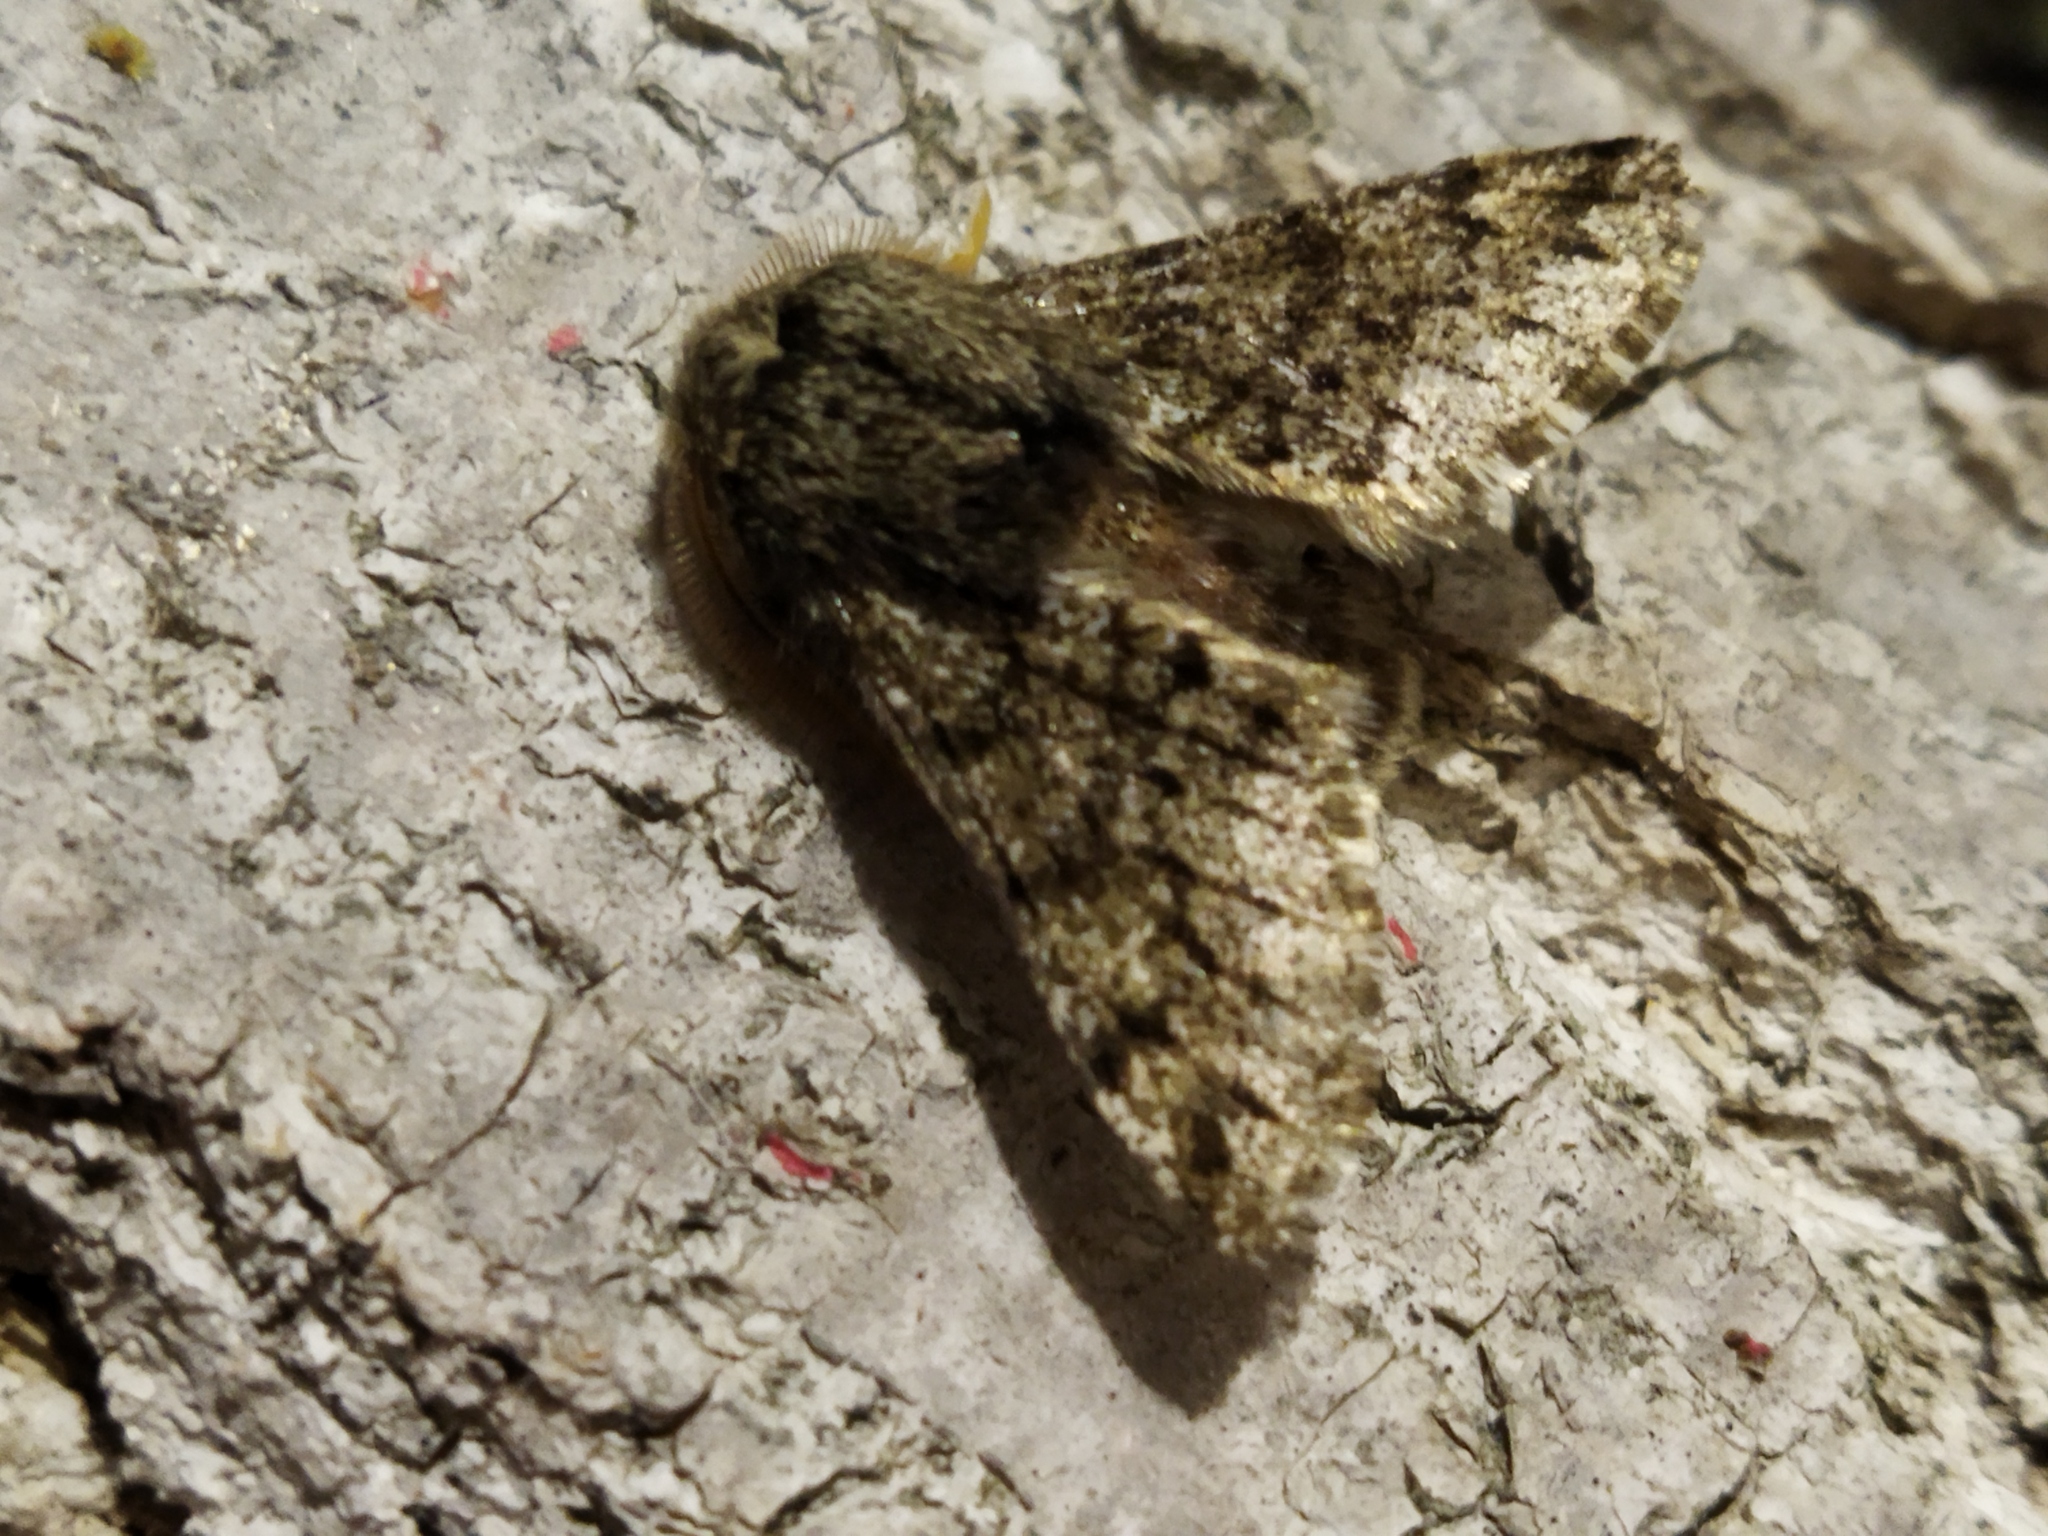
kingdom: Animalia
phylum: Arthropoda
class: Insecta
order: Lepidoptera
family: Geometridae
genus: Apocheima
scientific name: Apocheima hispidaria
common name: Small brindled beauty
